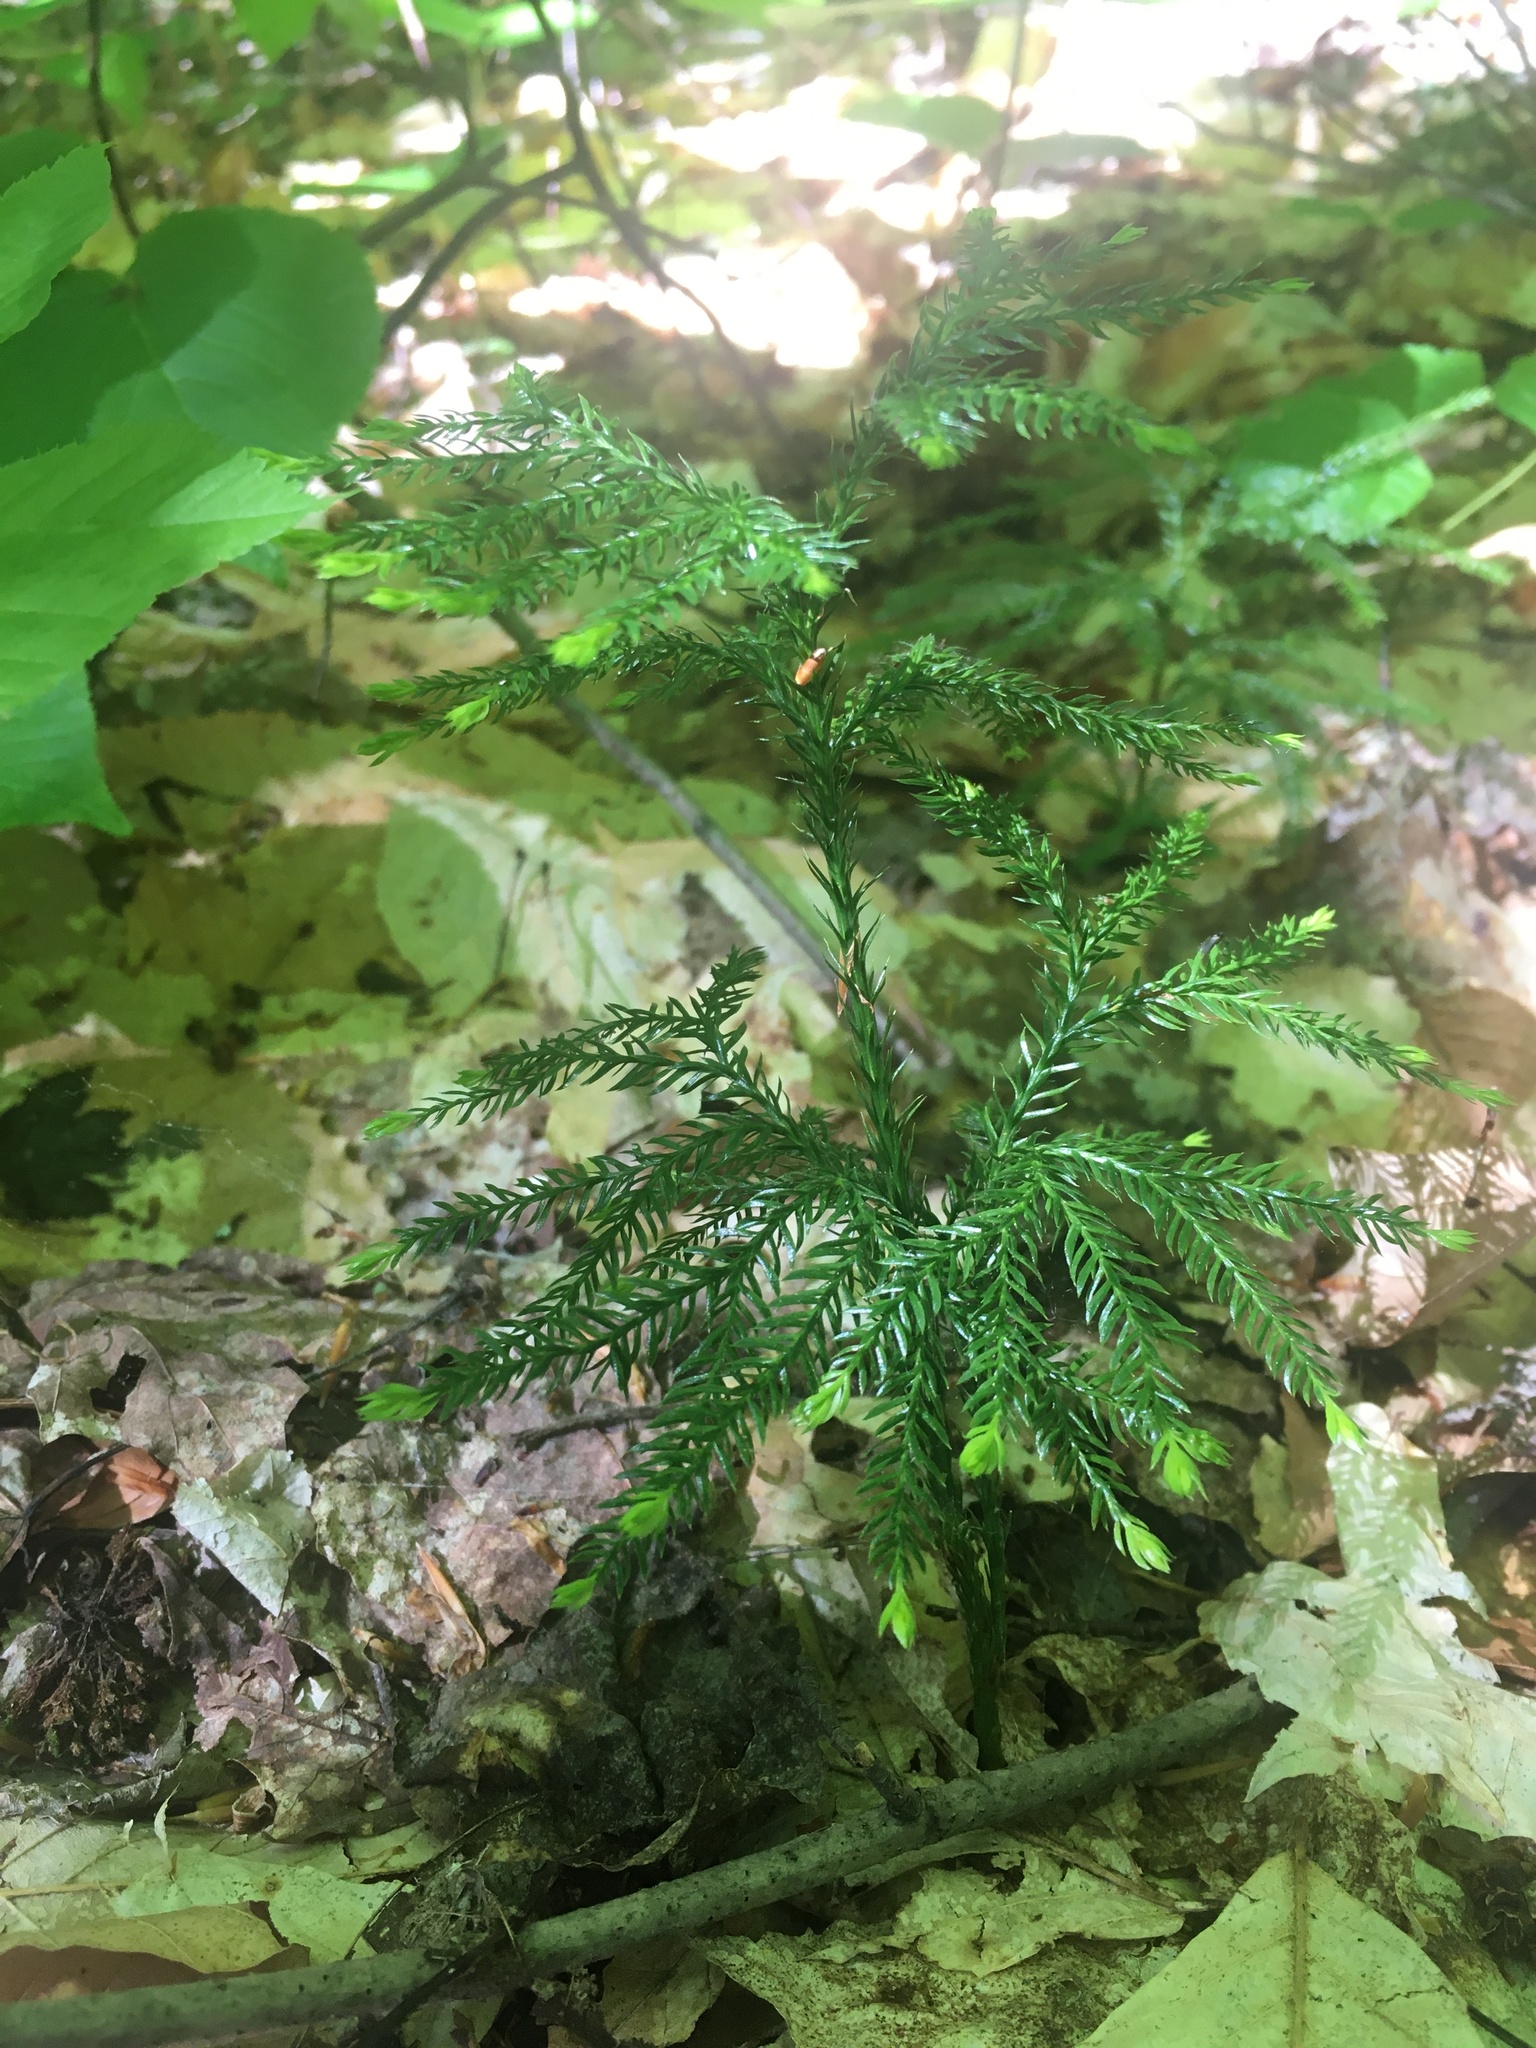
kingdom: Plantae
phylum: Tracheophyta
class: Lycopodiopsida
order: Lycopodiales
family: Lycopodiaceae
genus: Dendrolycopodium
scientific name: Dendrolycopodium dendroideum
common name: Northern tree-clubmoss
